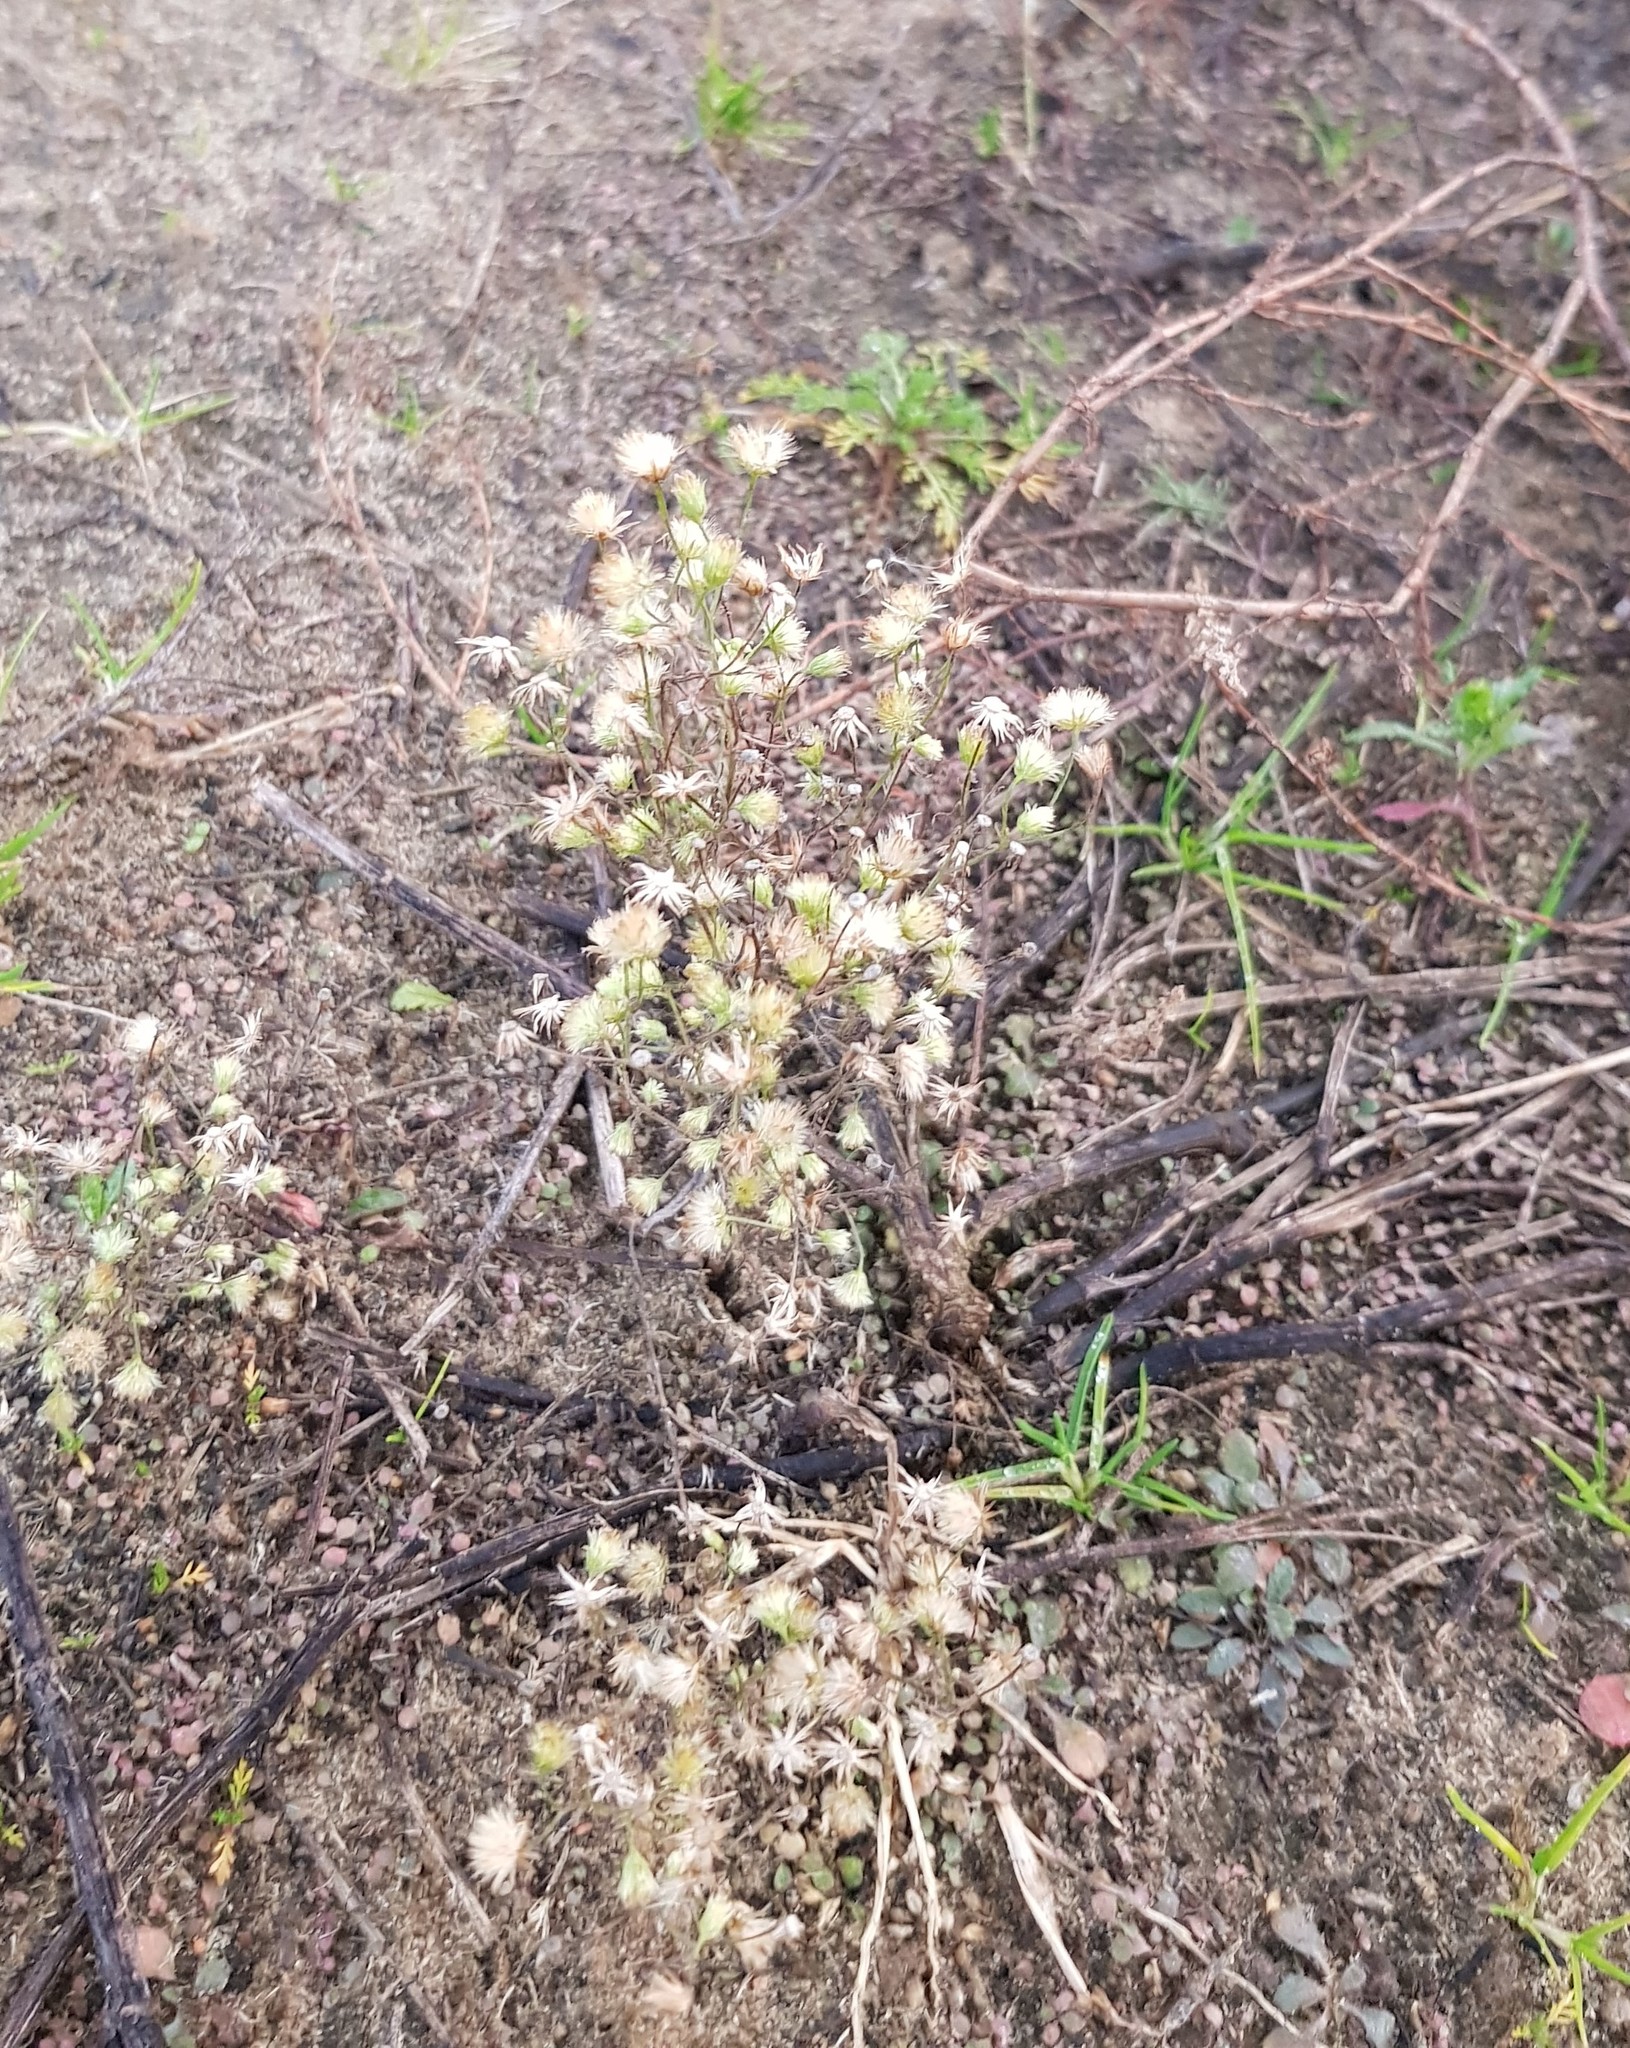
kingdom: Plantae
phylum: Tracheophyta
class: Magnoliopsida
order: Asterales
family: Asteraceae
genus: Erigeron
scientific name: Erigeron canadensis
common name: Canadian fleabane
